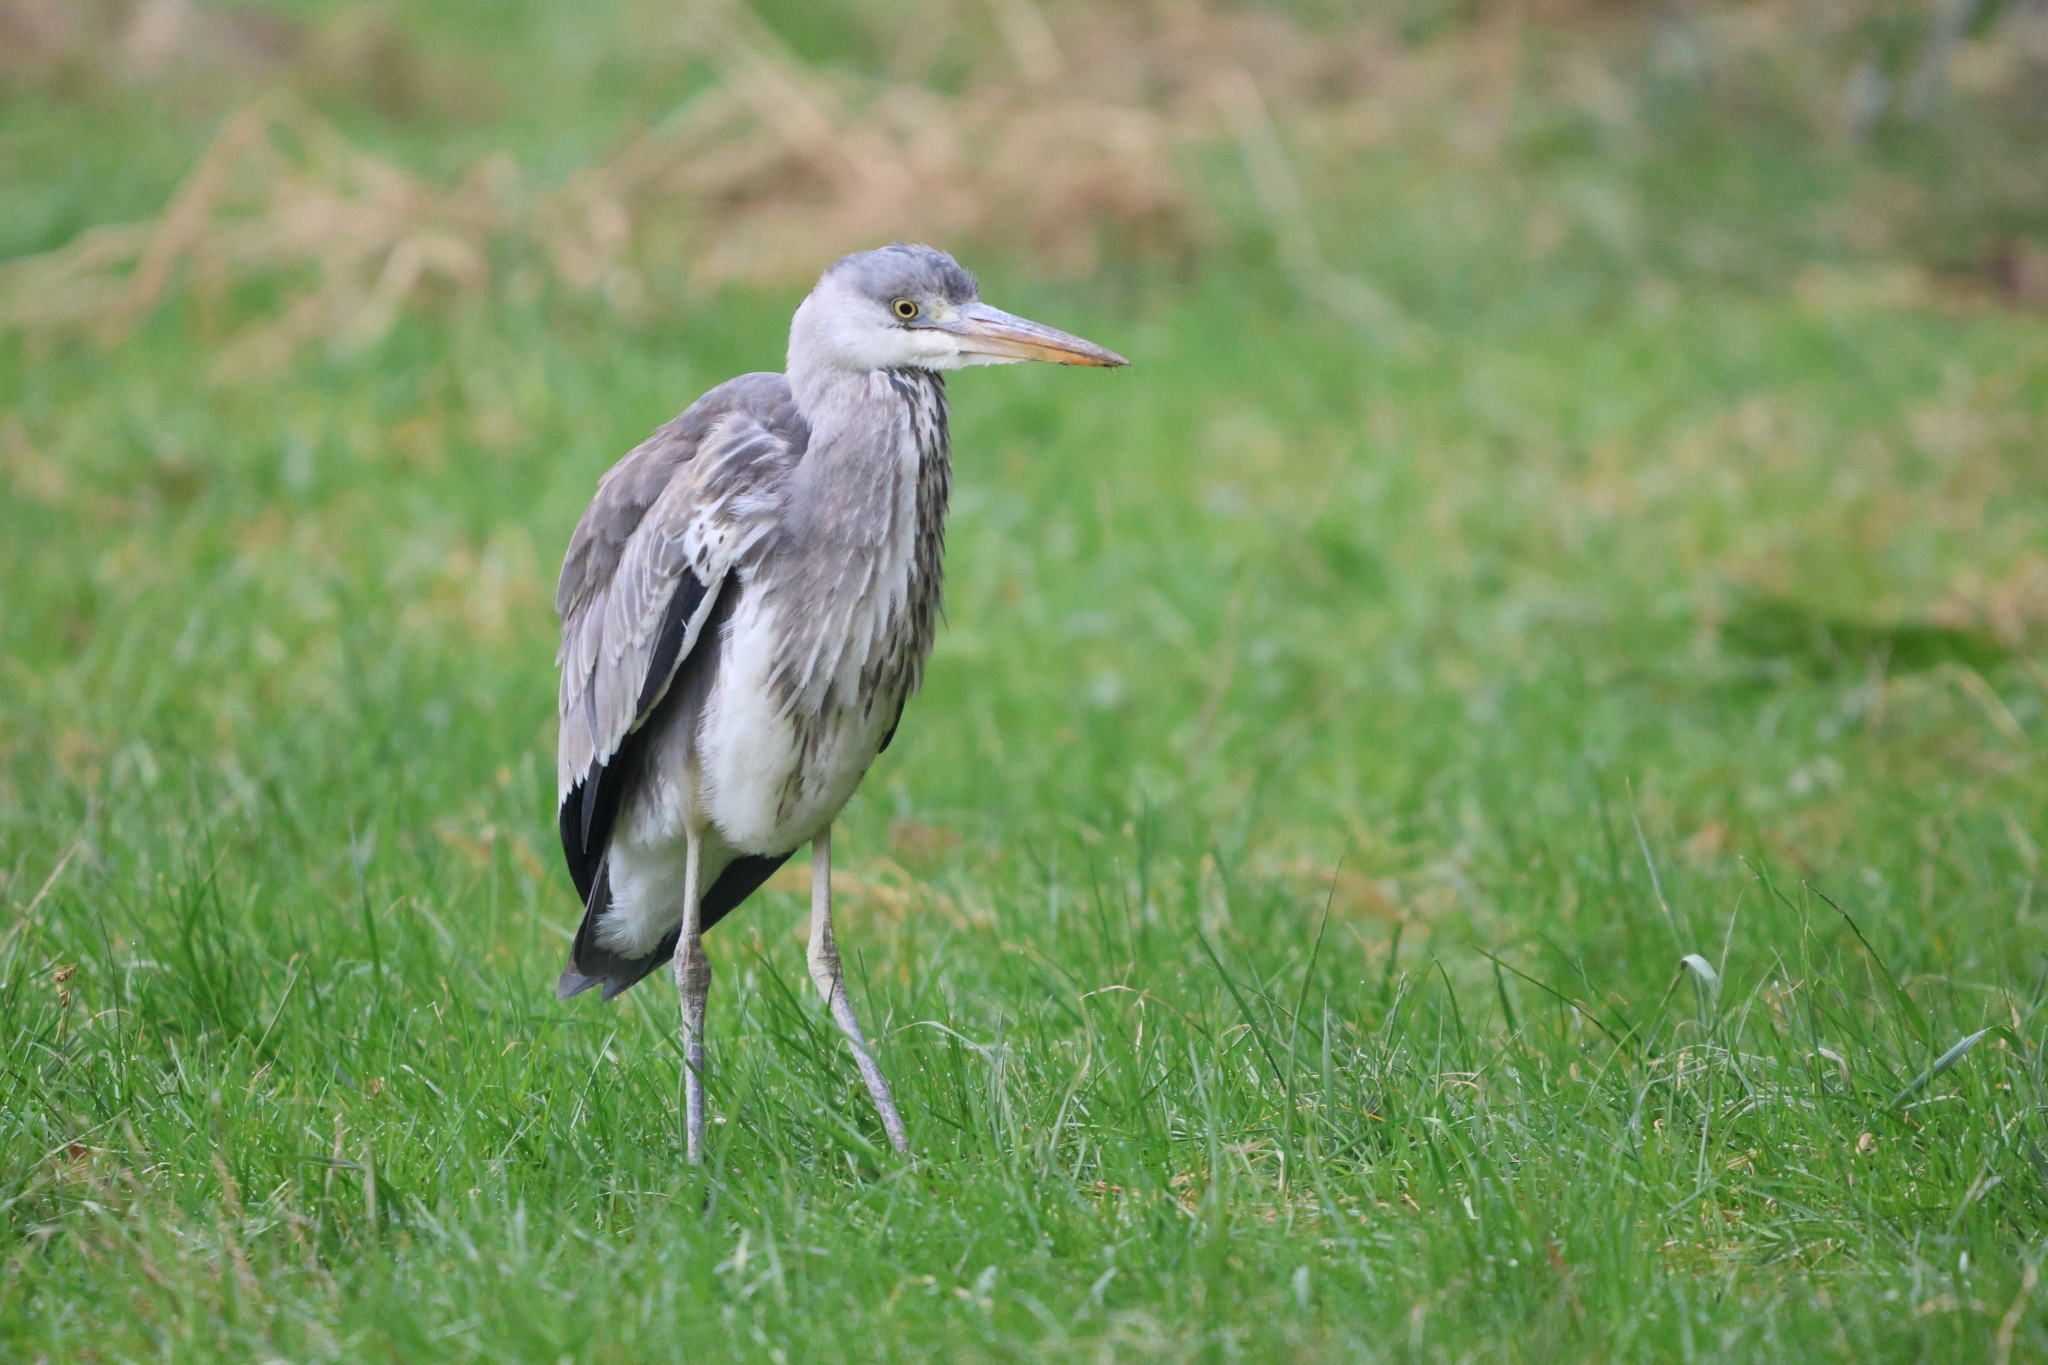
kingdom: Animalia
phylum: Chordata
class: Aves
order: Pelecaniformes
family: Ardeidae
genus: Ardea
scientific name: Ardea cinerea
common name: Grey heron
